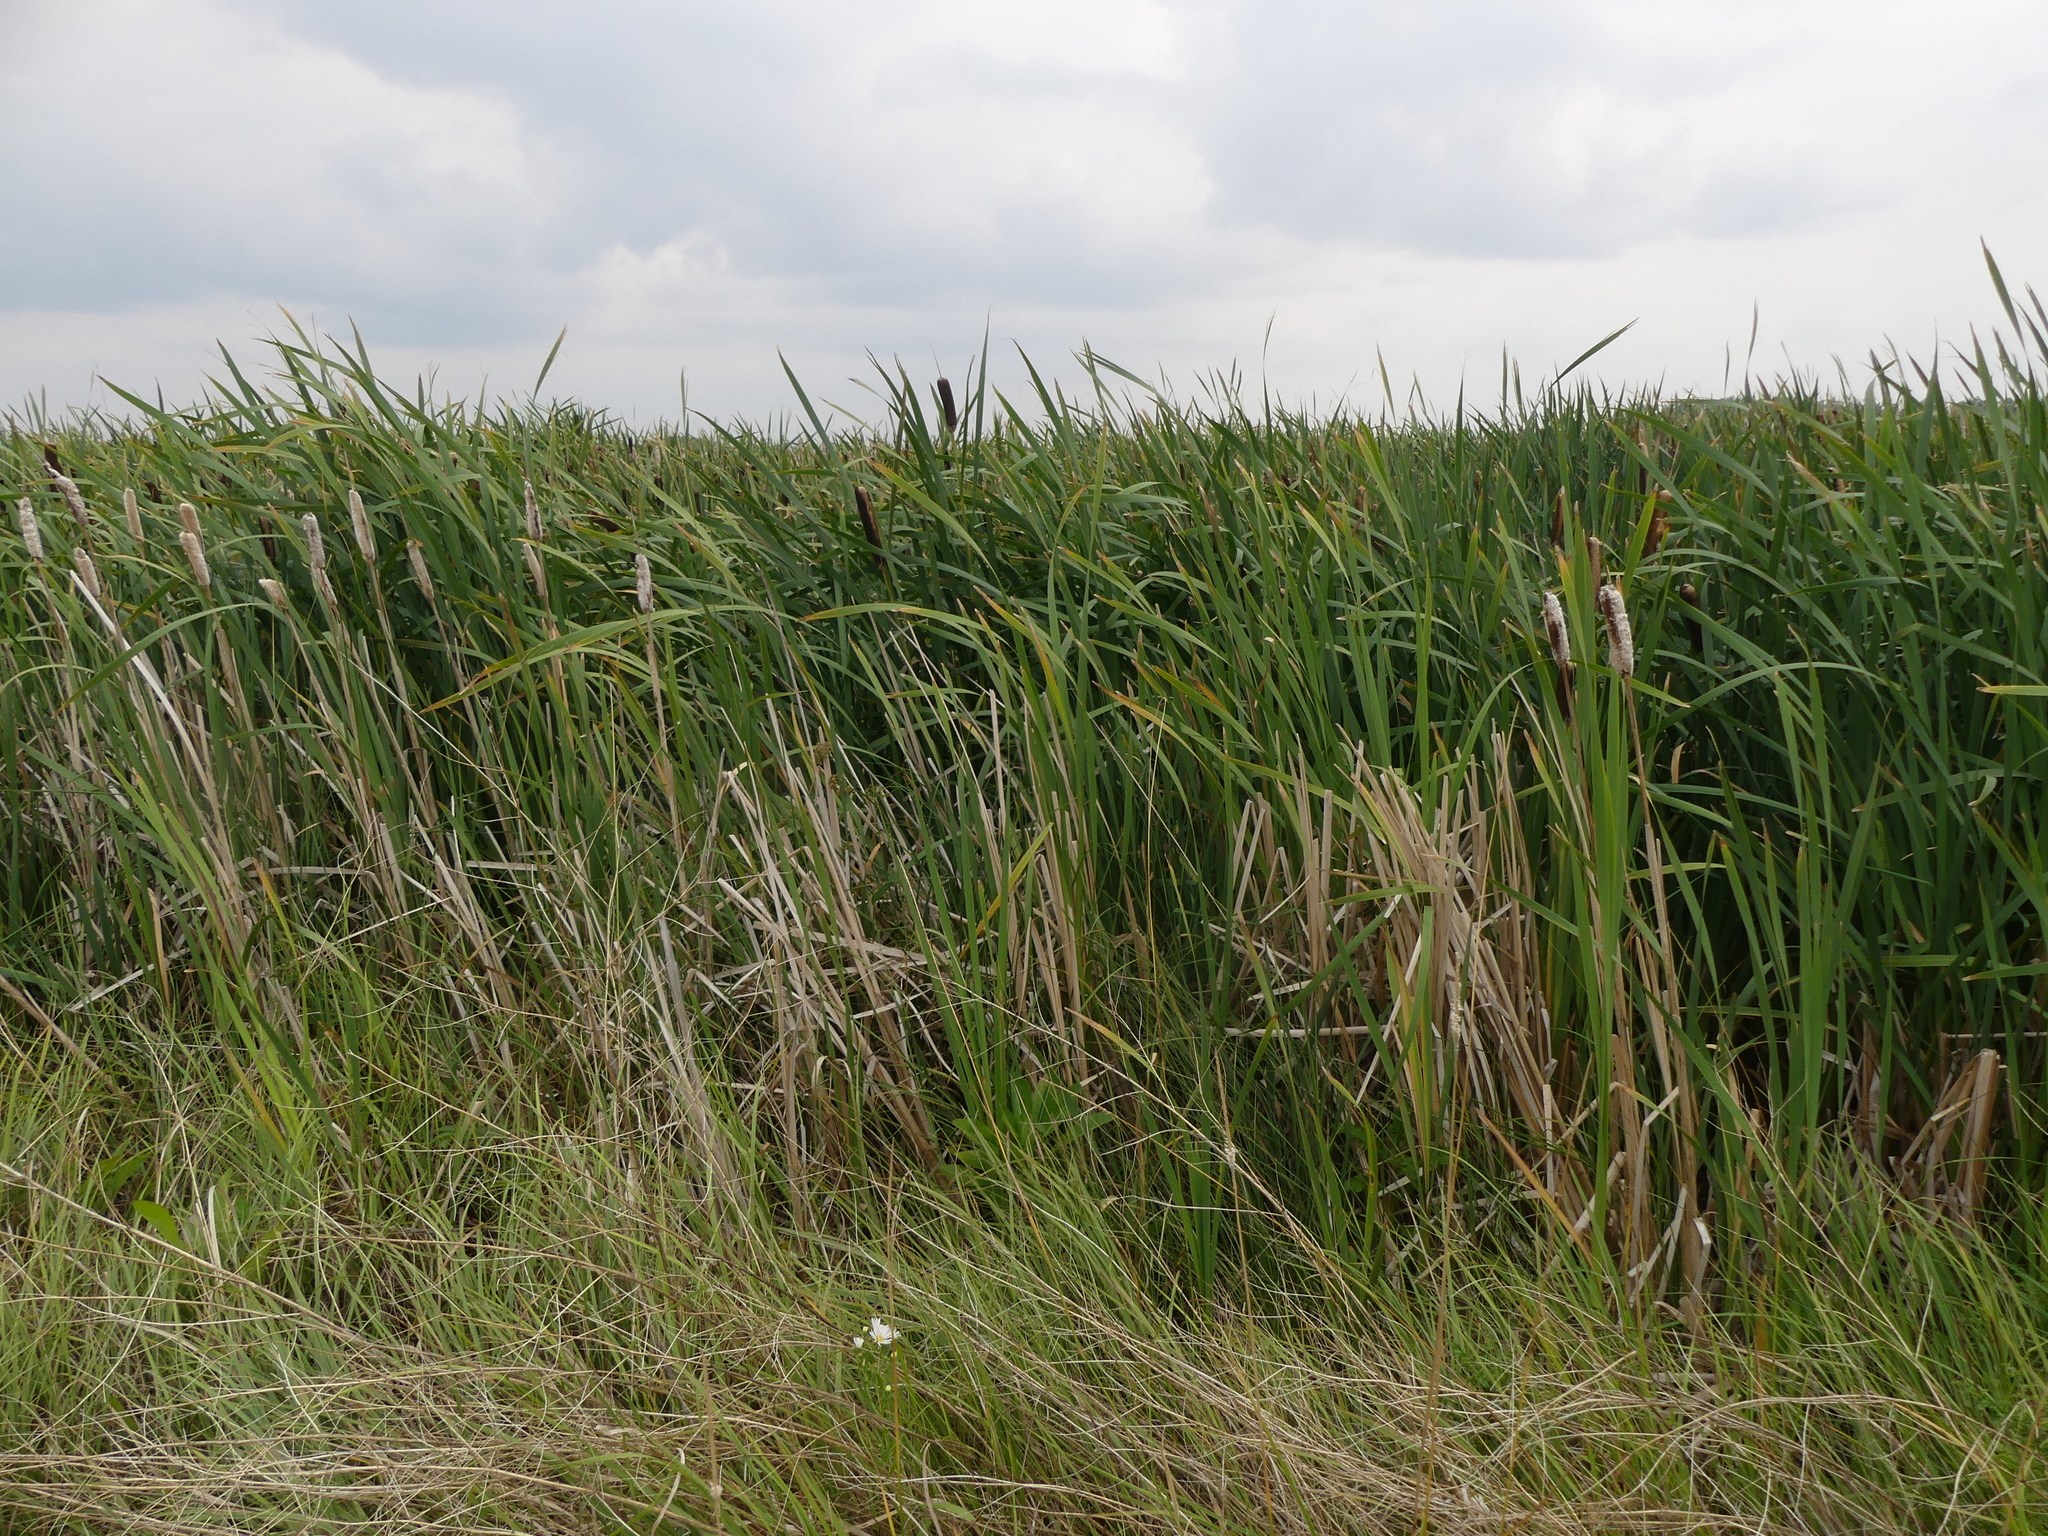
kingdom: Plantae
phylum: Tracheophyta
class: Liliopsida
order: Poales
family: Typhaceae
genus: Typha
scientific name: Typha latifolia
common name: Broadleaf cattail
